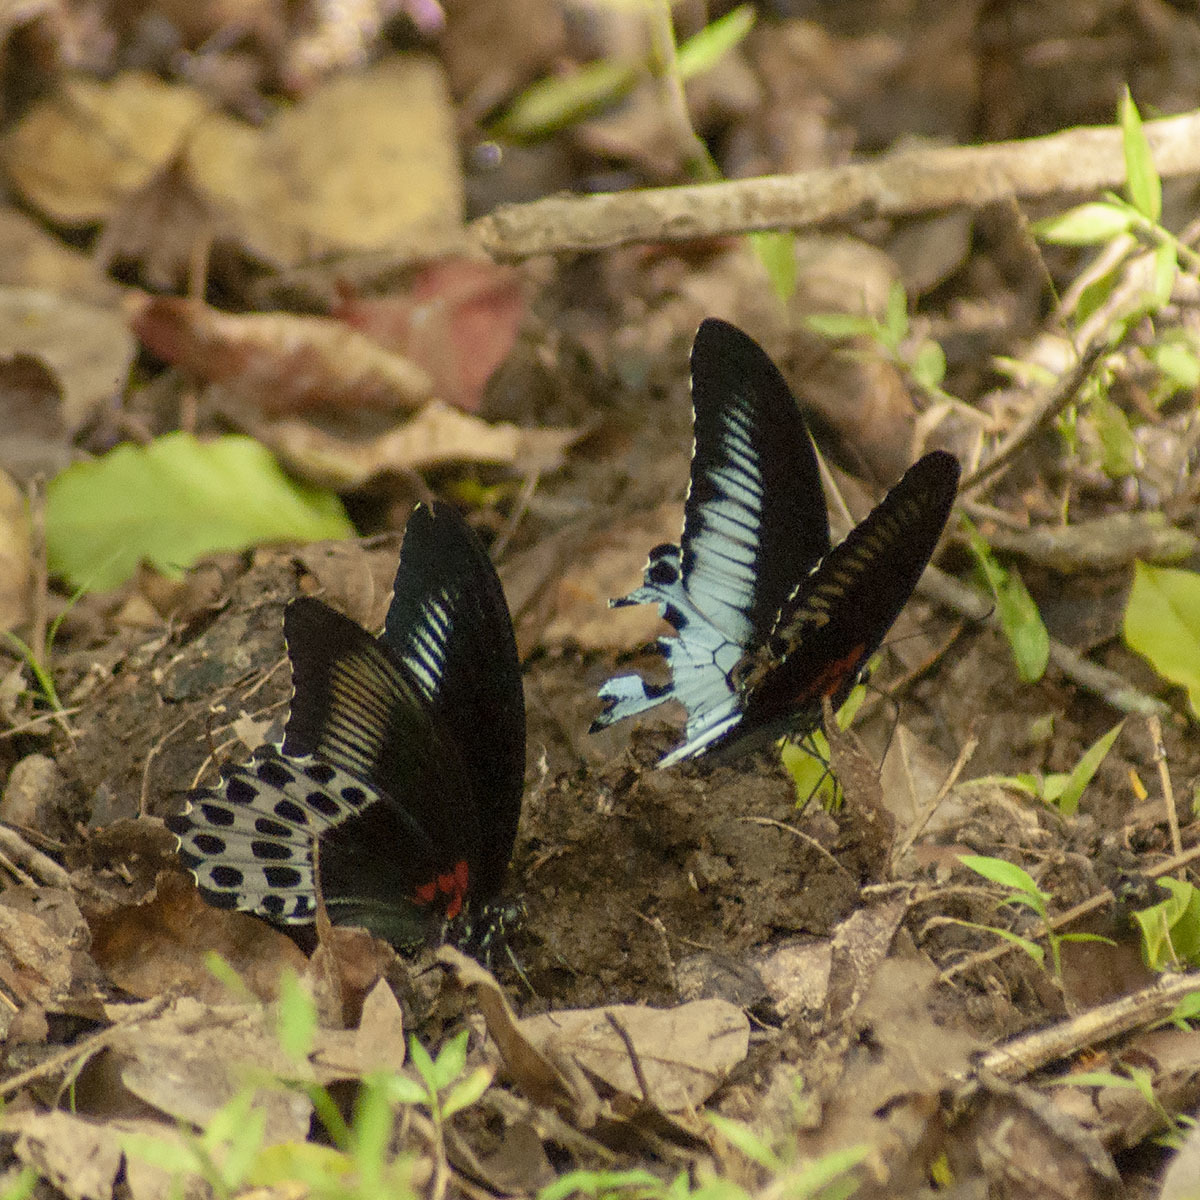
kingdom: Animalia
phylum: Arthropoda
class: Insecta
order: Lepidoptera
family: Papilionidae
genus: Papilio
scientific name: Papilio memnon
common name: Great mormon
